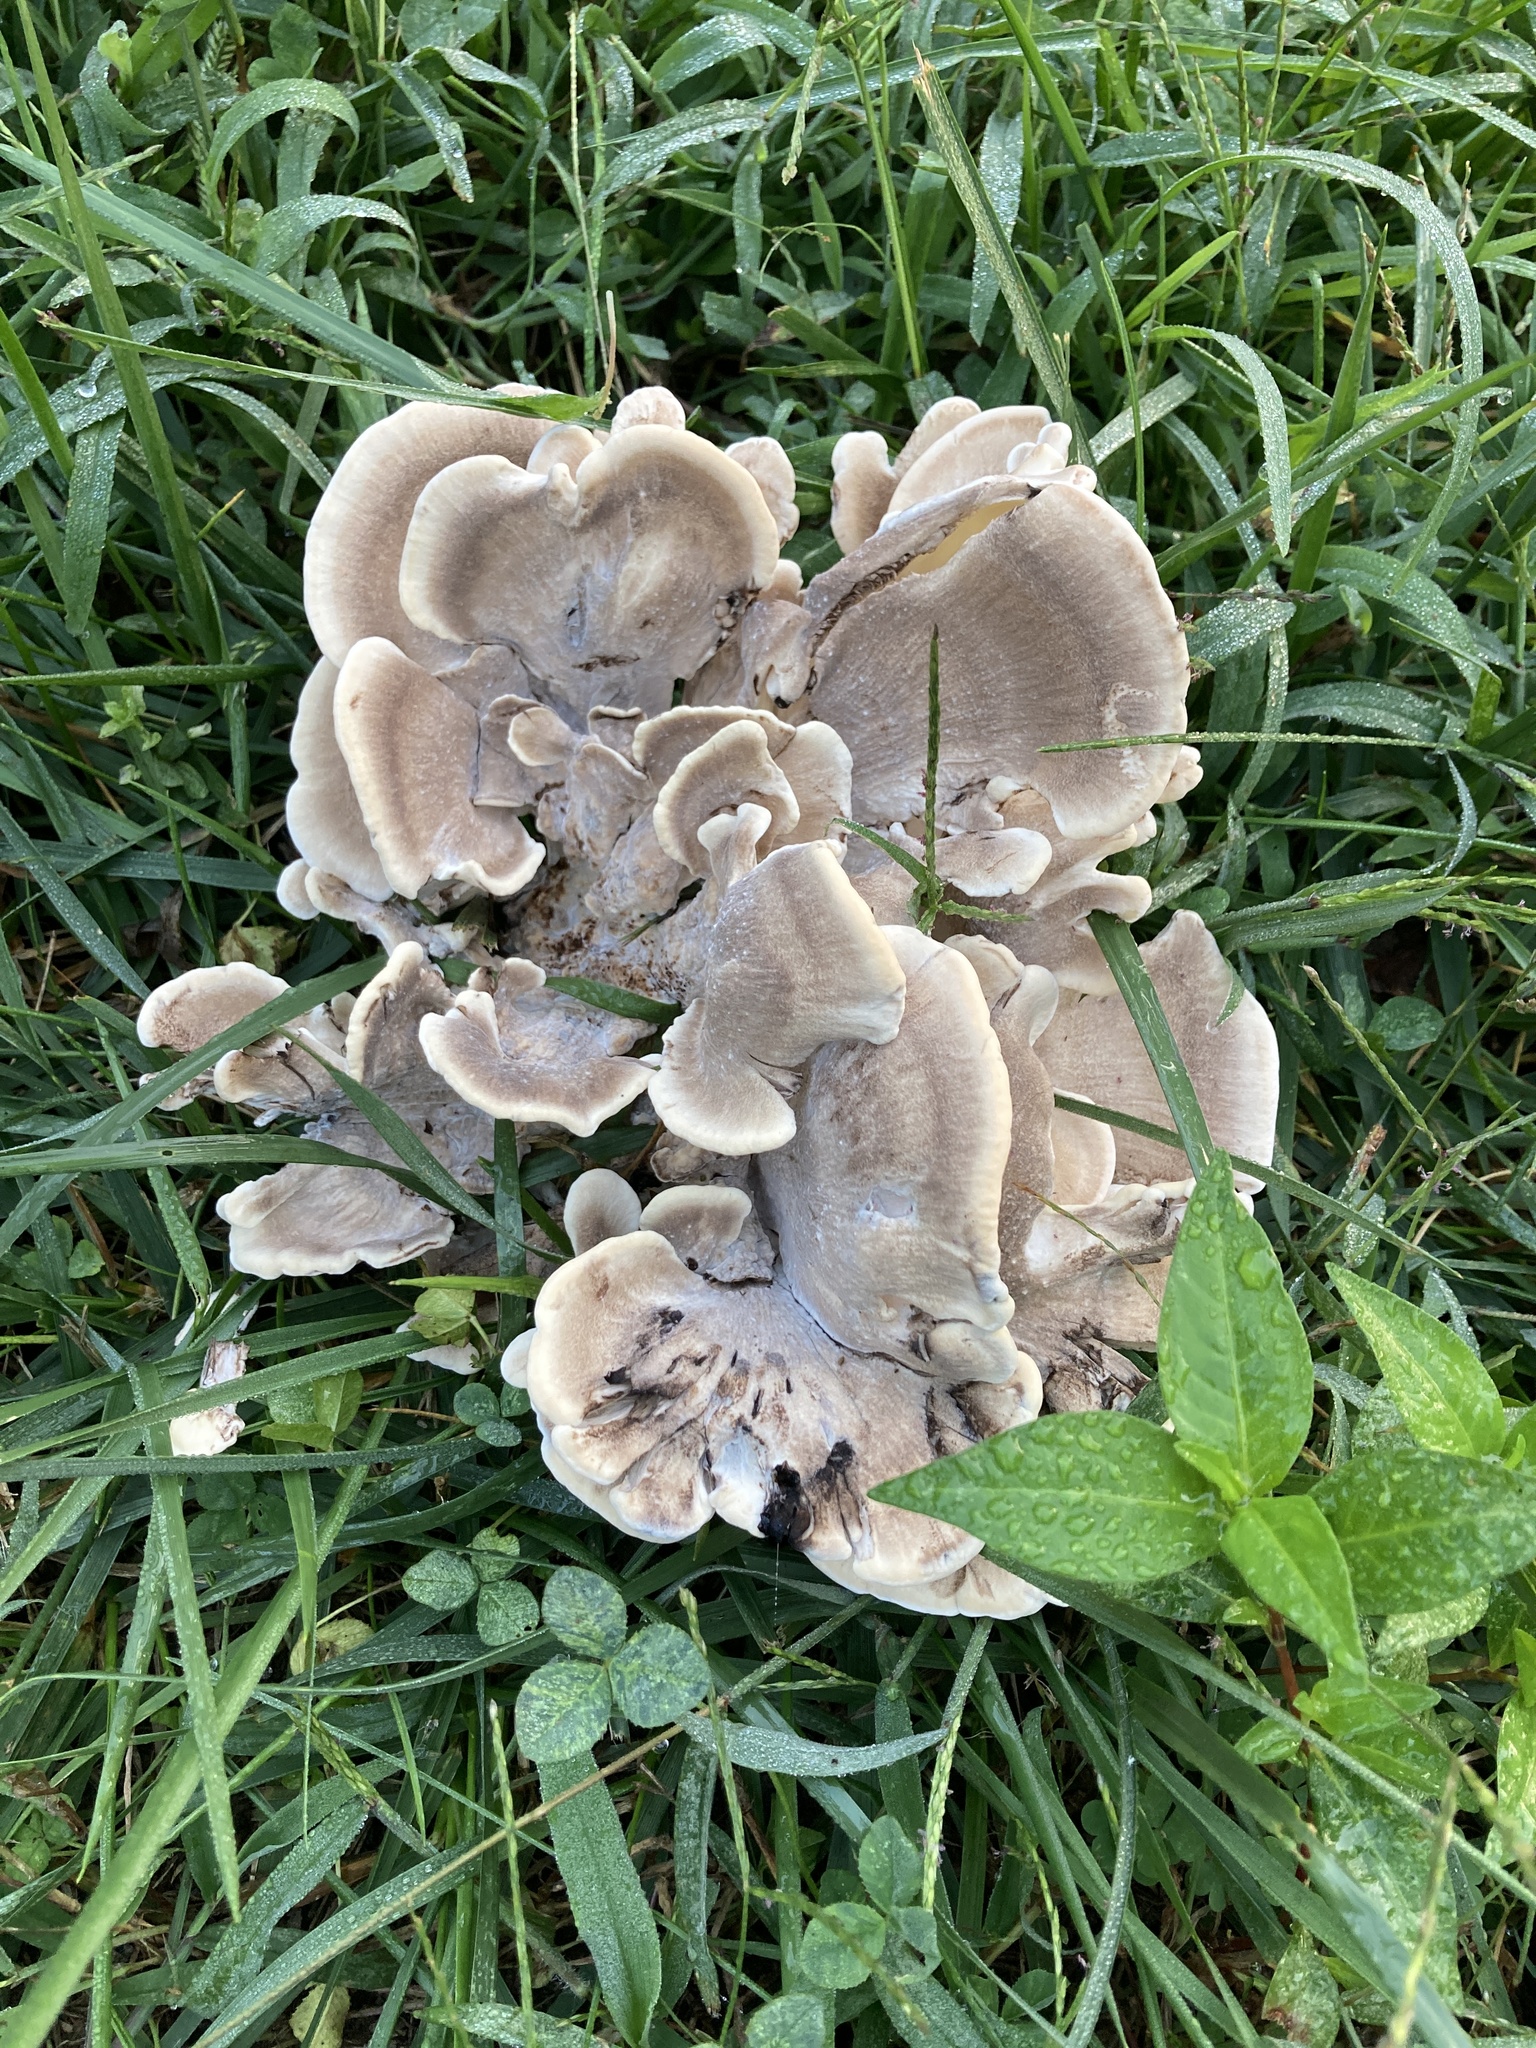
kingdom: Fungi
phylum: Basidiomycota
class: Agaricomycetes
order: Polyporales
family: Meripilaceae
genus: Meripilus
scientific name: Meripilus sumstinei
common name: Black-staining polypore
